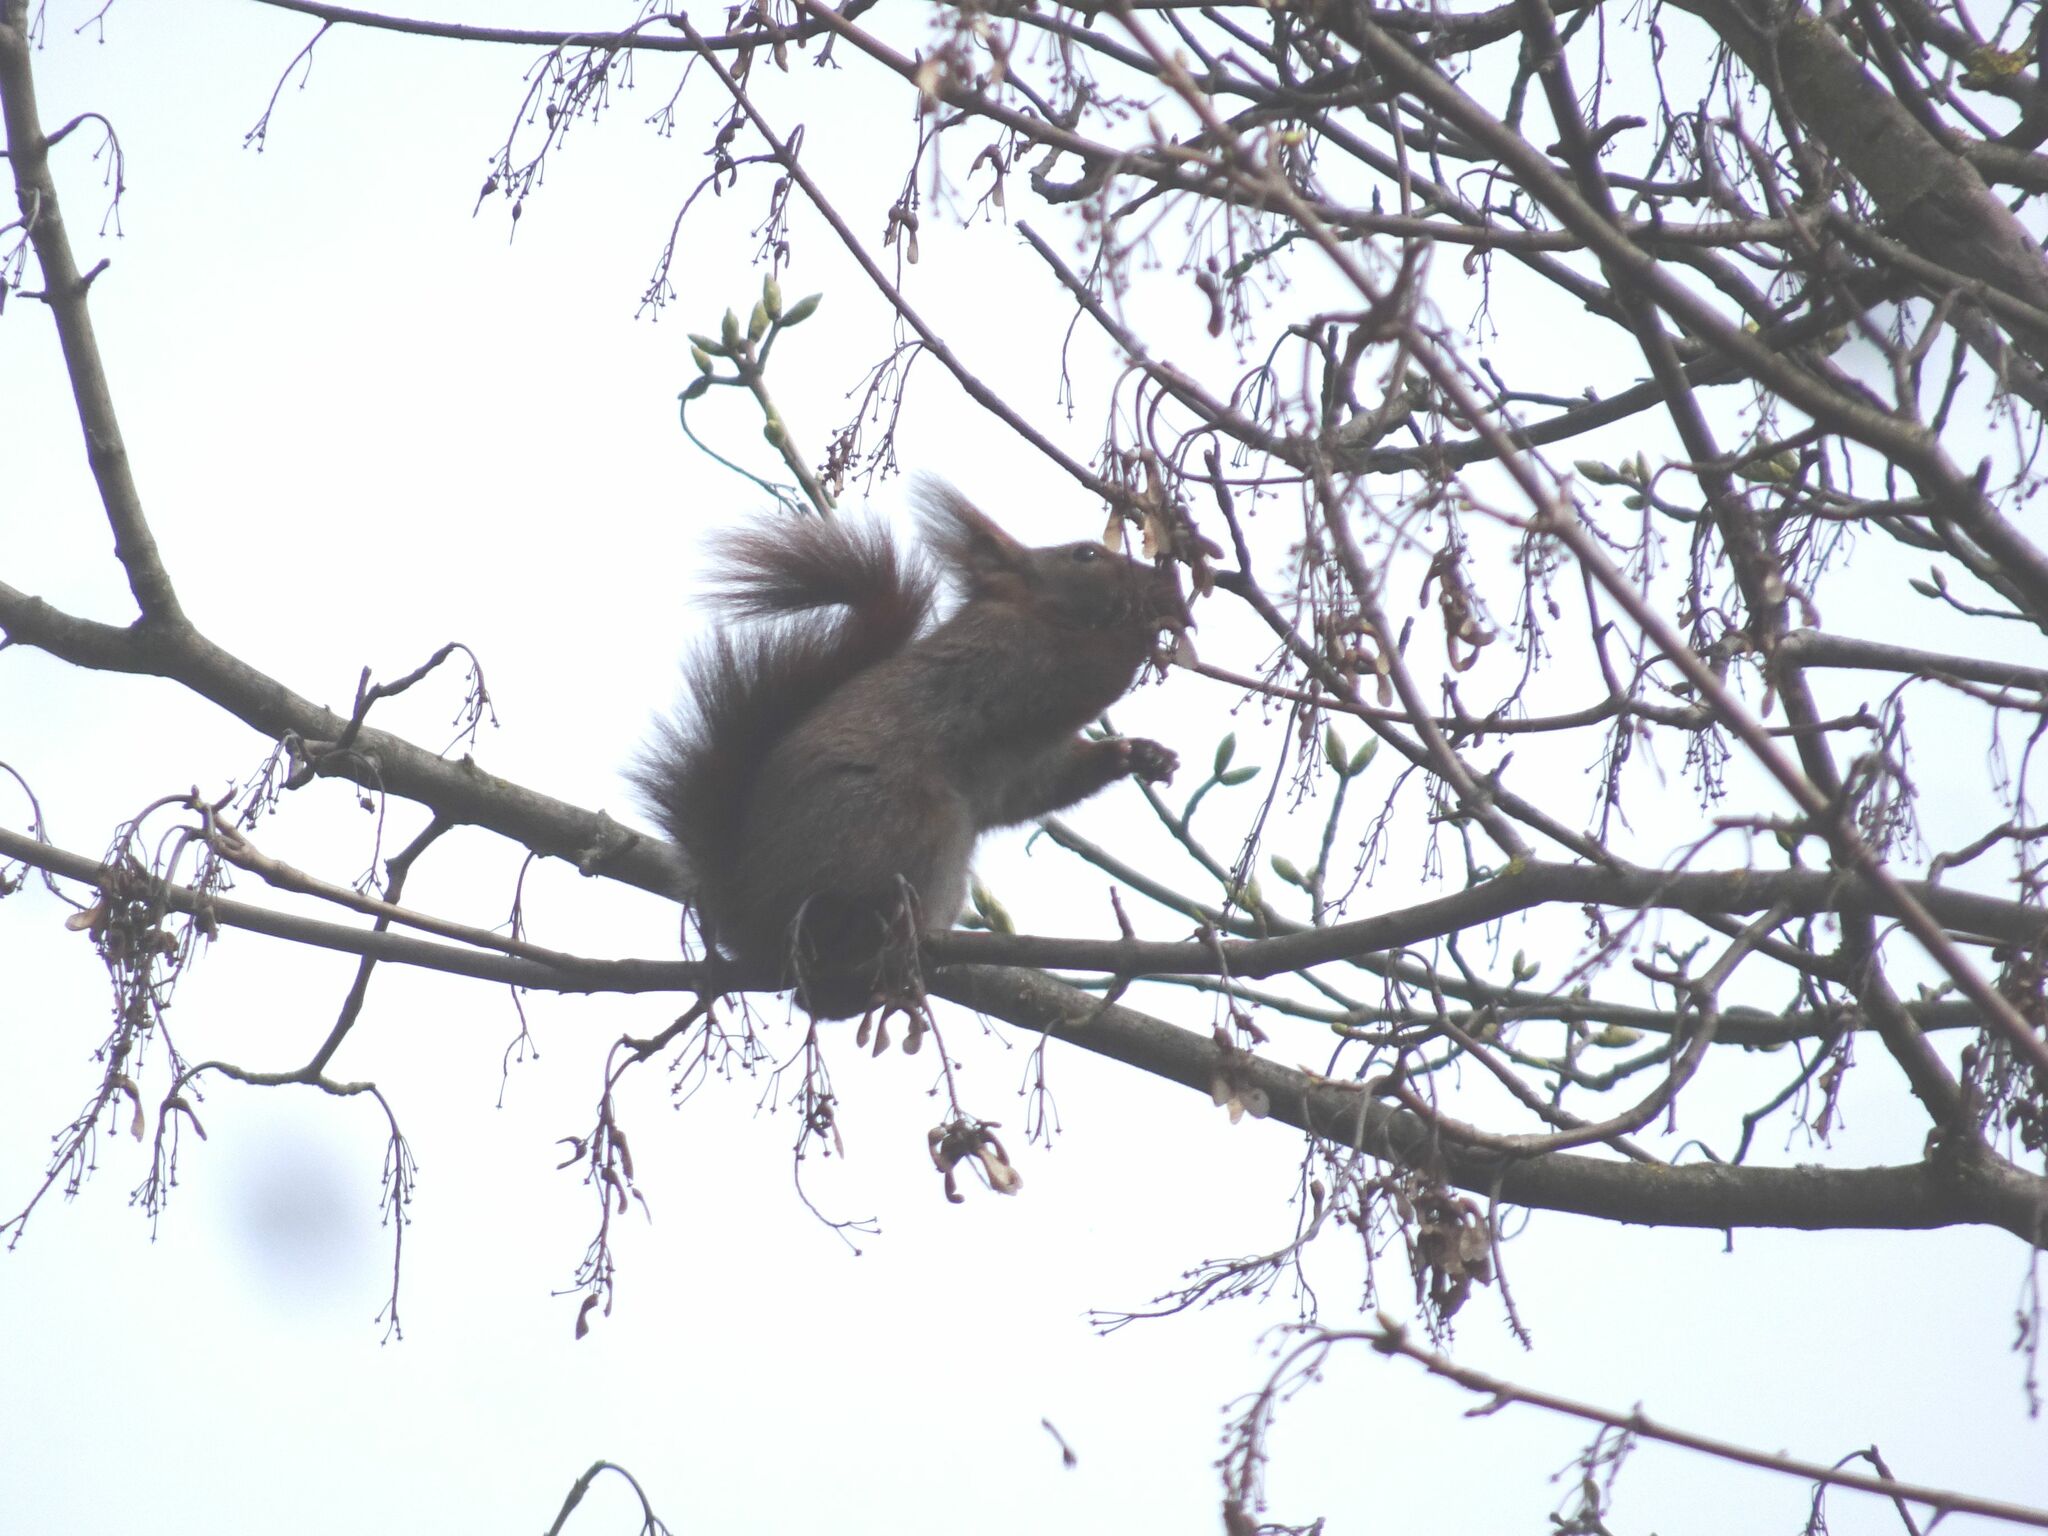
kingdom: Animalia
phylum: Chordata
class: Mammalia
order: Rodentia
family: Sciuridae
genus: Sciurus
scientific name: Sciurus vulgaris
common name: Eurasian red squirrel
